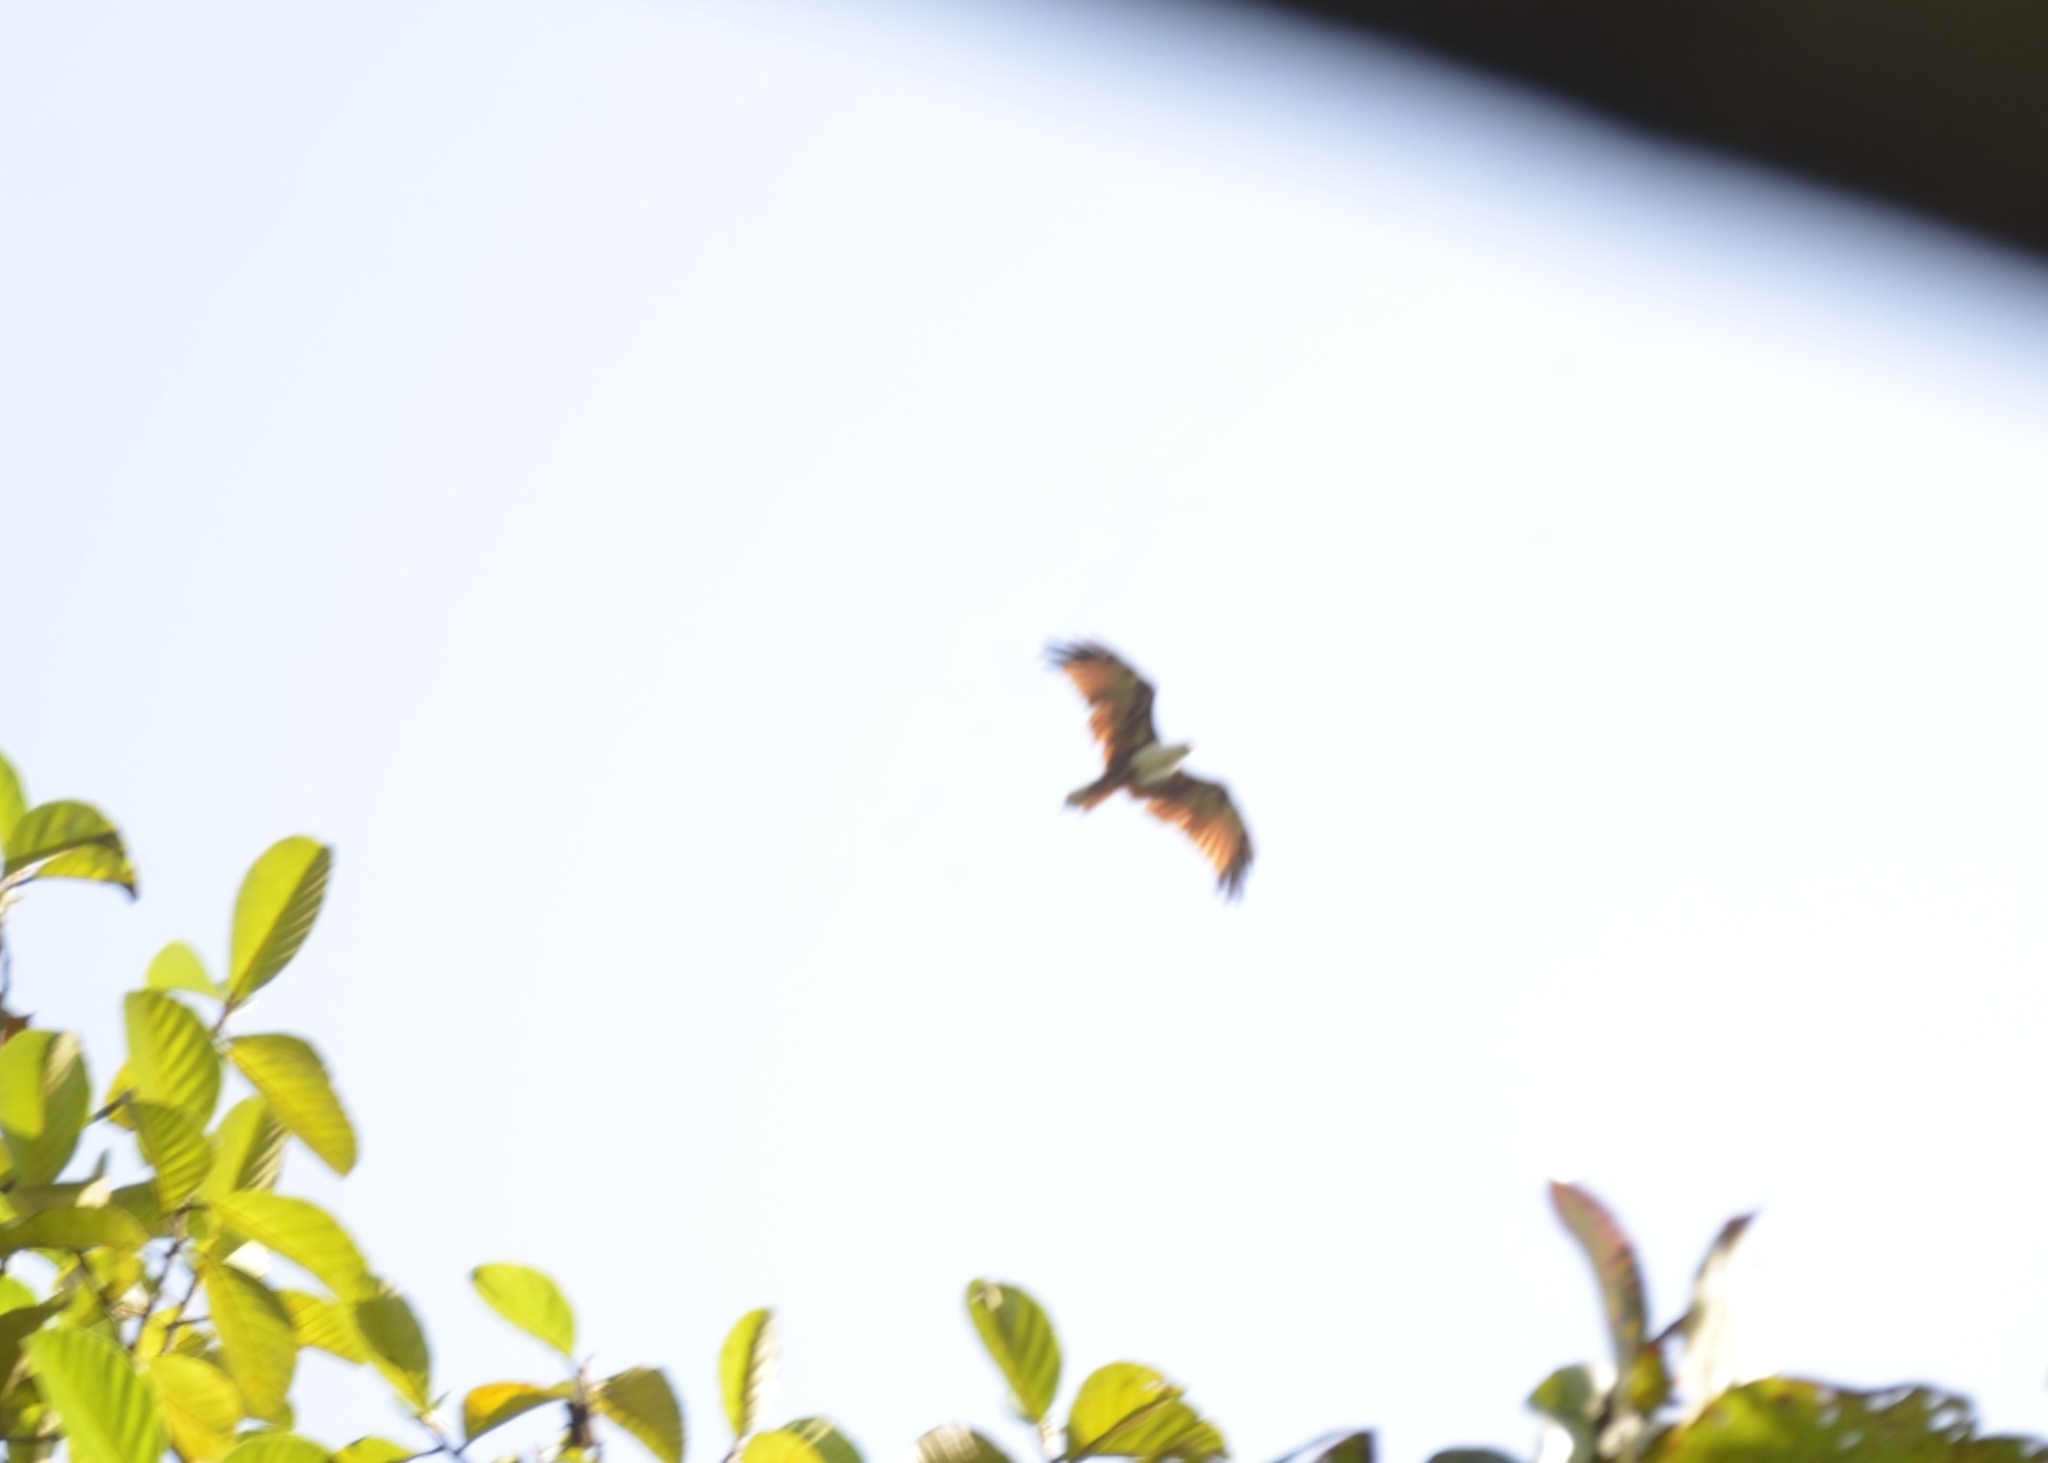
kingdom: Animalia
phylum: Chordata
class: Aves
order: Accipitriformes
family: Accipitridae
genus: Haliastur
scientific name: Haliastur indus
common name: Brahminy kite
